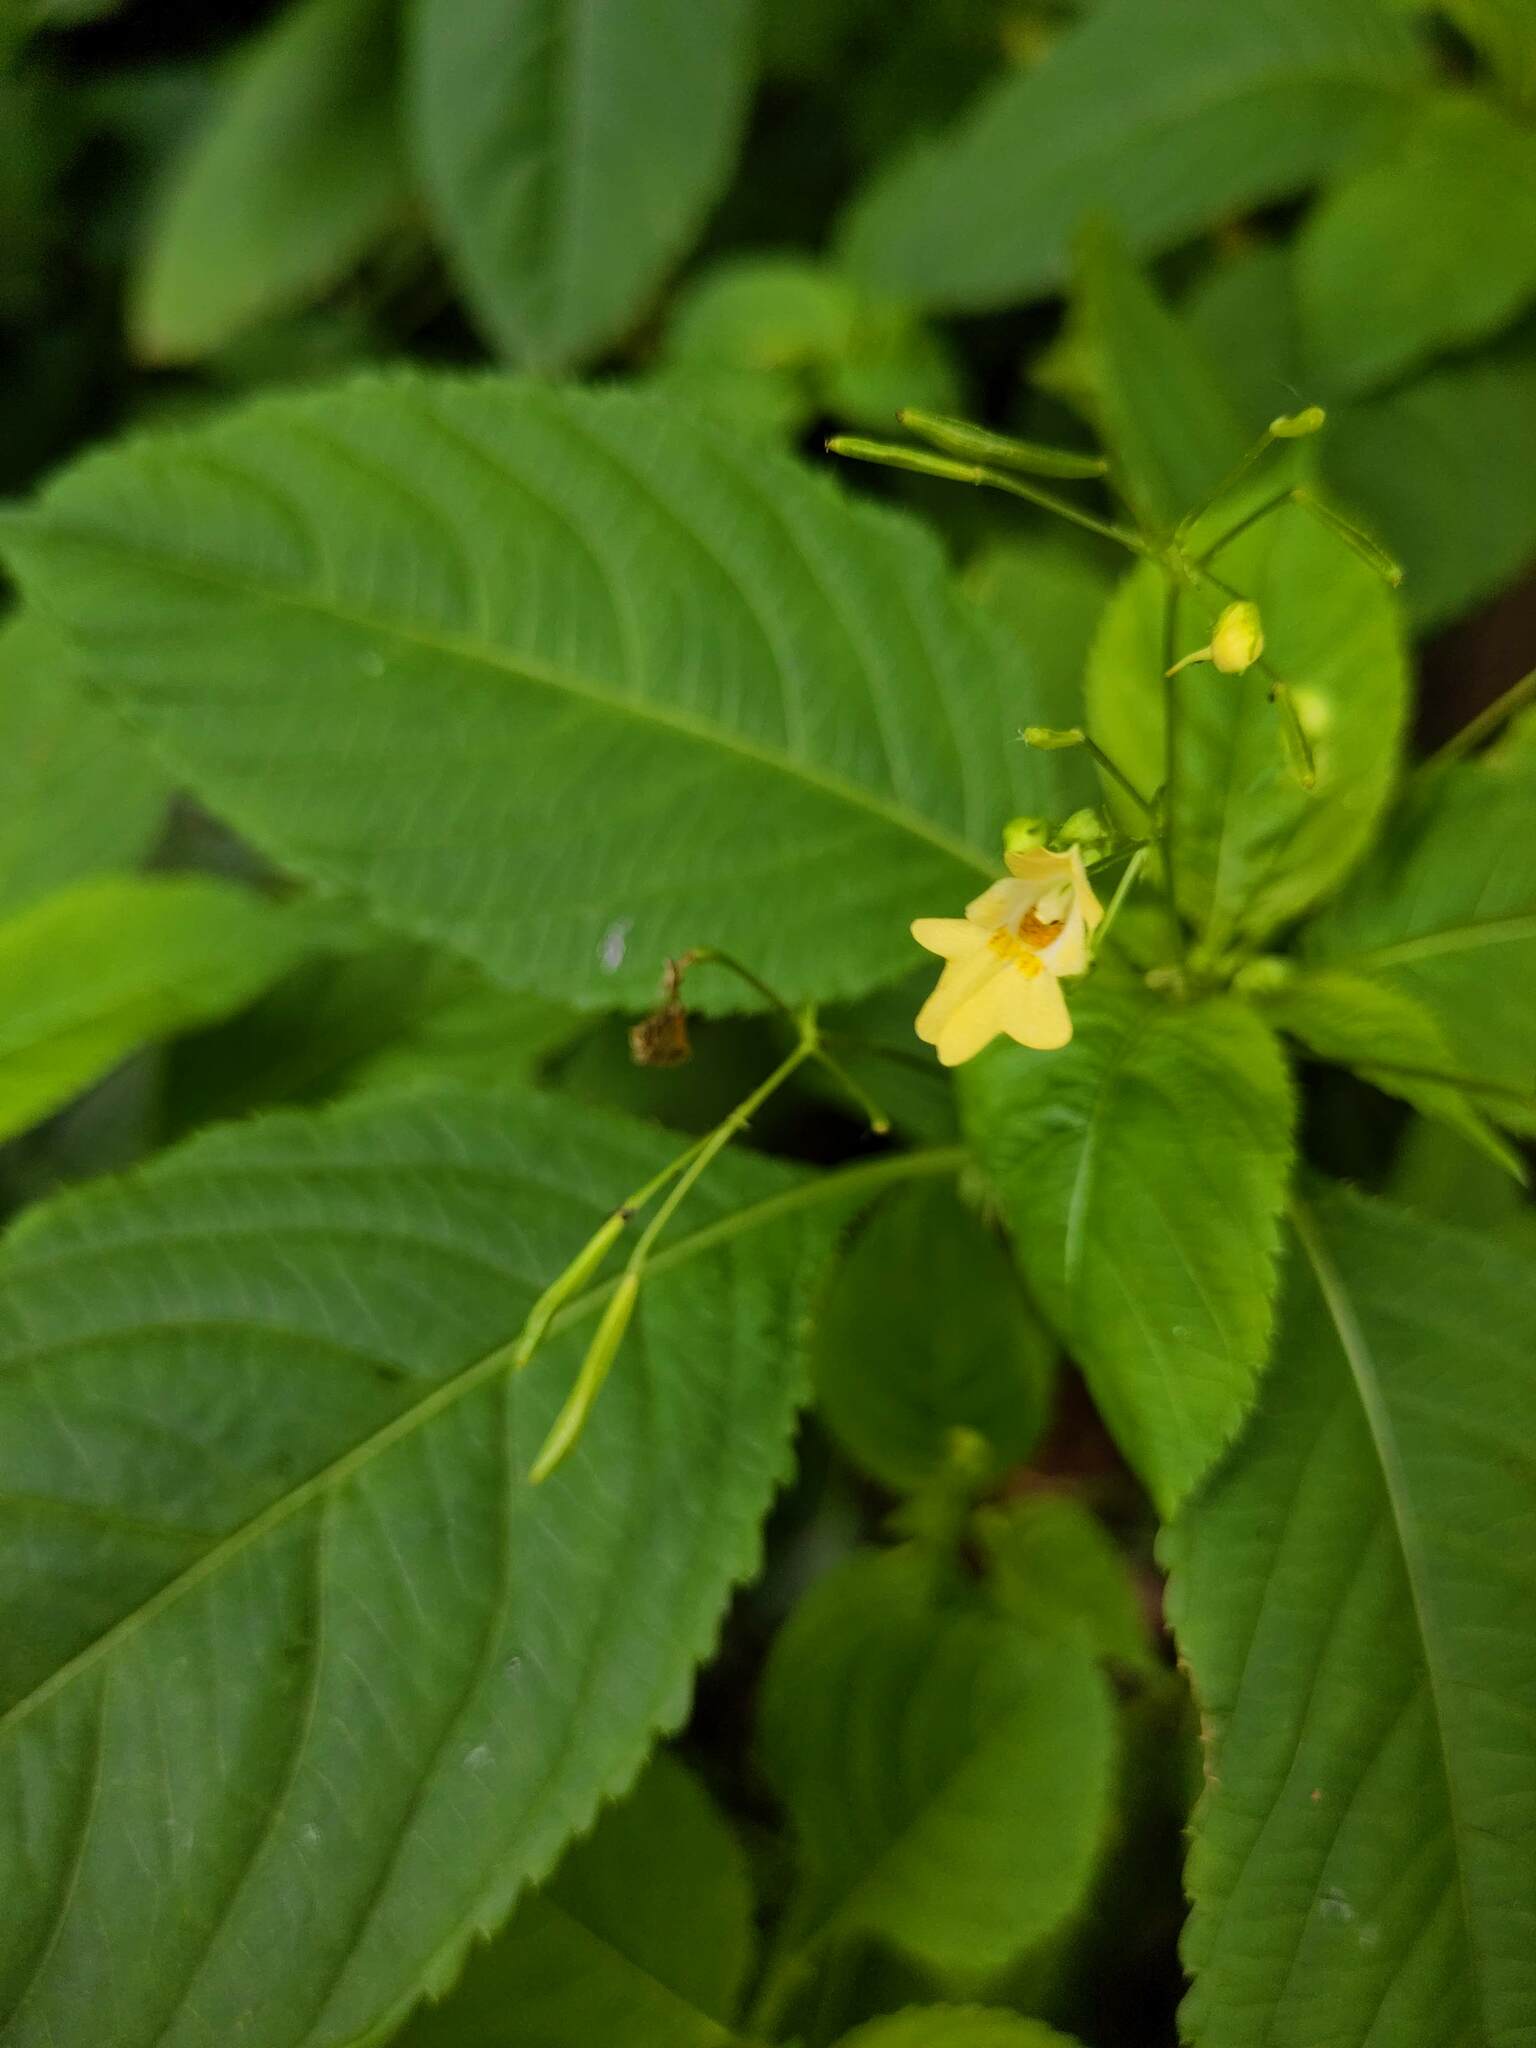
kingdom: Plantae
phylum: Tracheophyta
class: Magnoliopsida
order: Ericales
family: Balsaminaceae
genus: Impatiens
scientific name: Impatiens parviflora
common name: Small balsam
